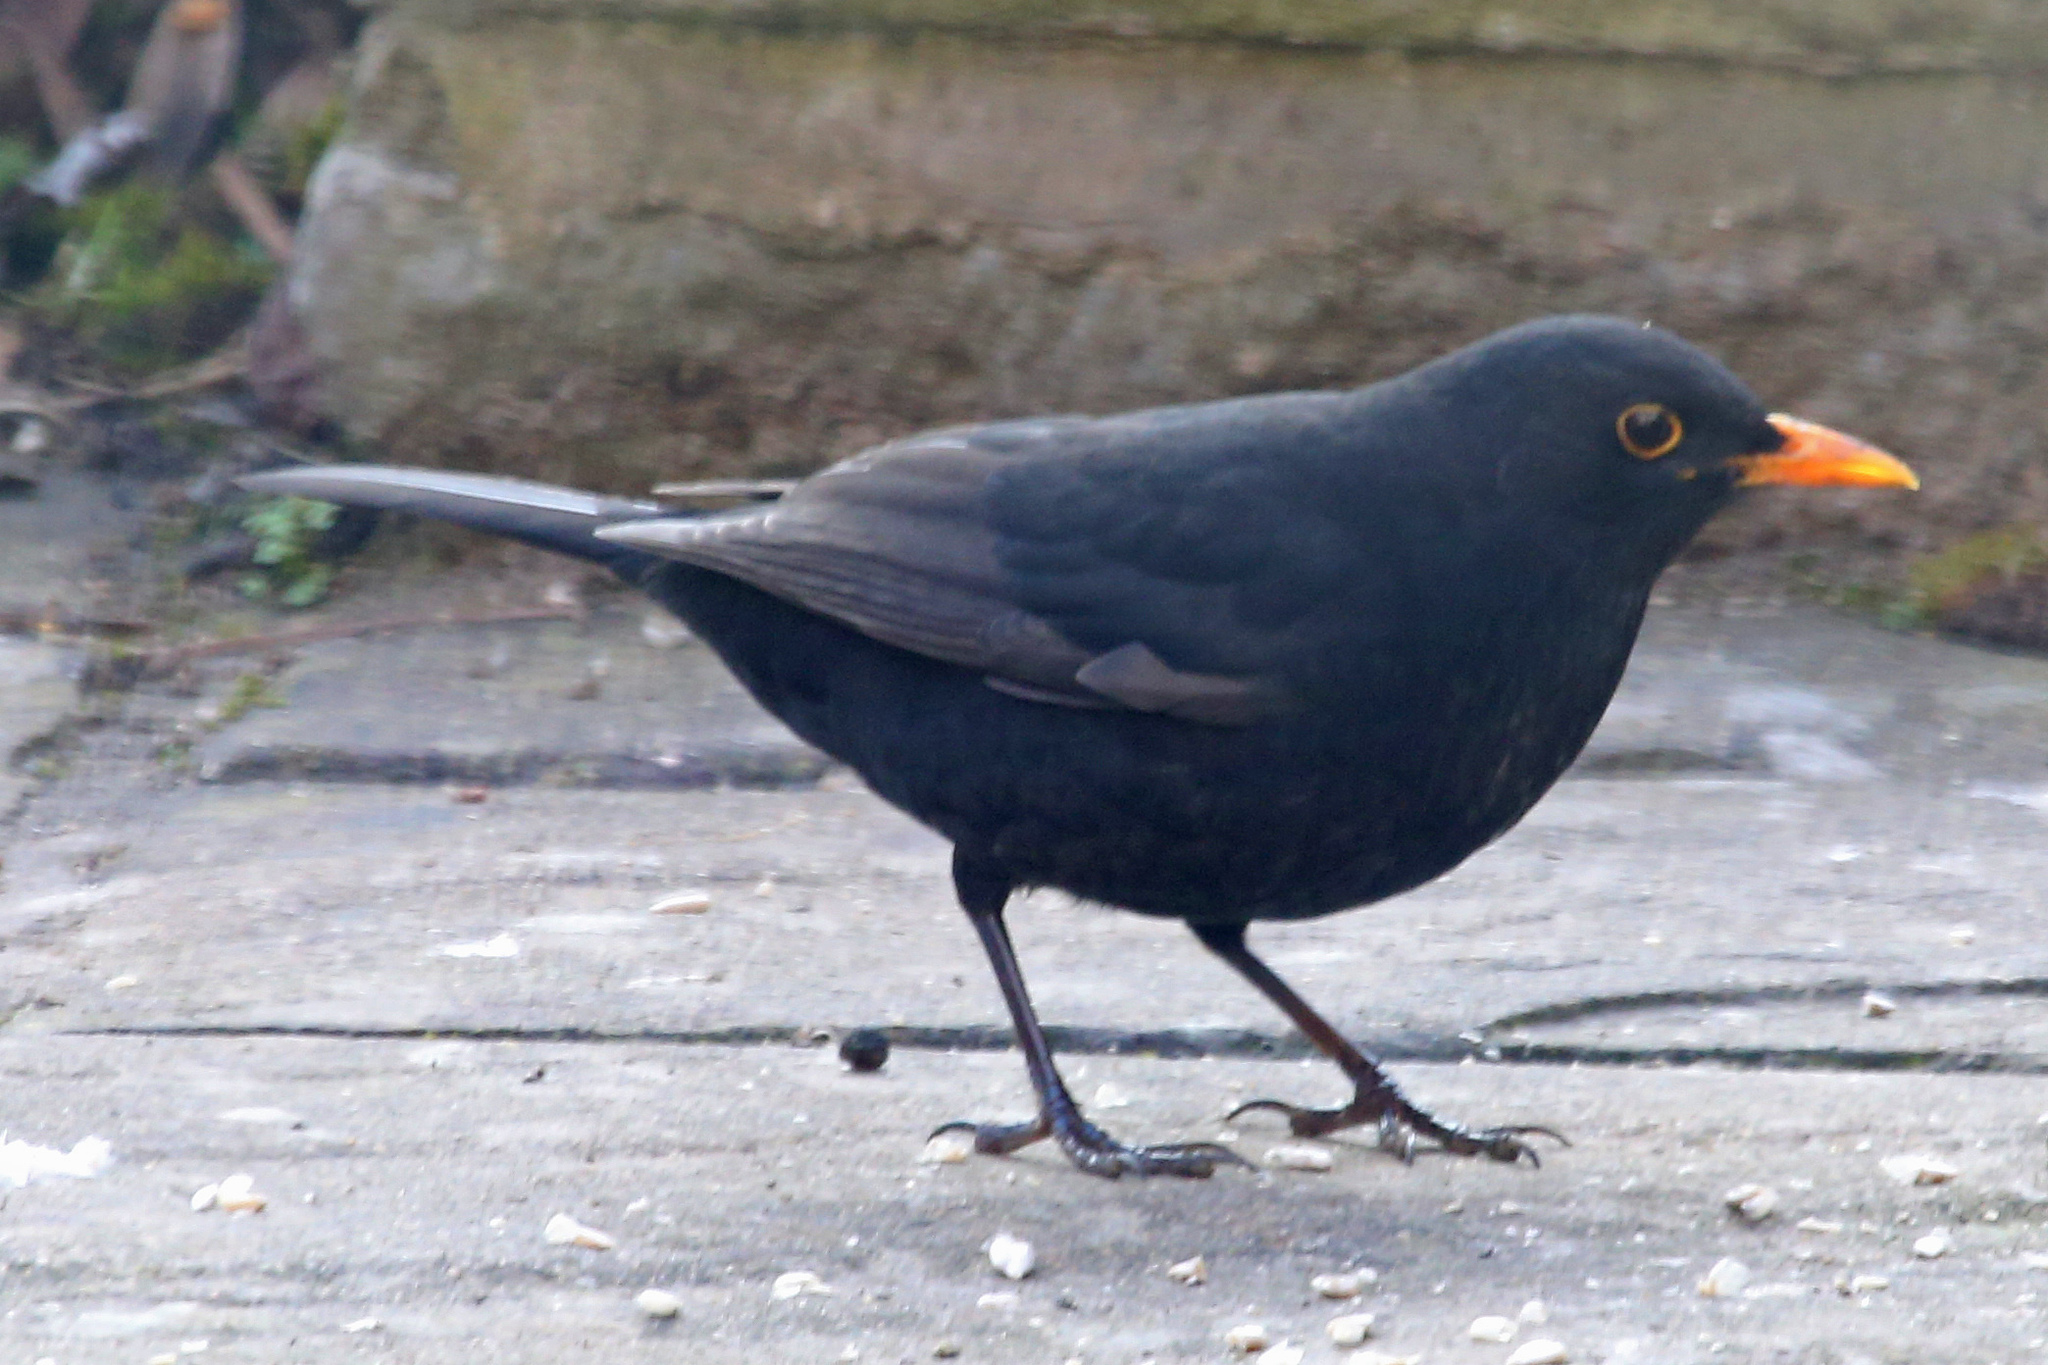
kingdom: Animalia
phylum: Chordata
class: Aves
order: Passeriformes
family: Turdidae
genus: Turdus
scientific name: Turdus merula
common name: Common blackbird
